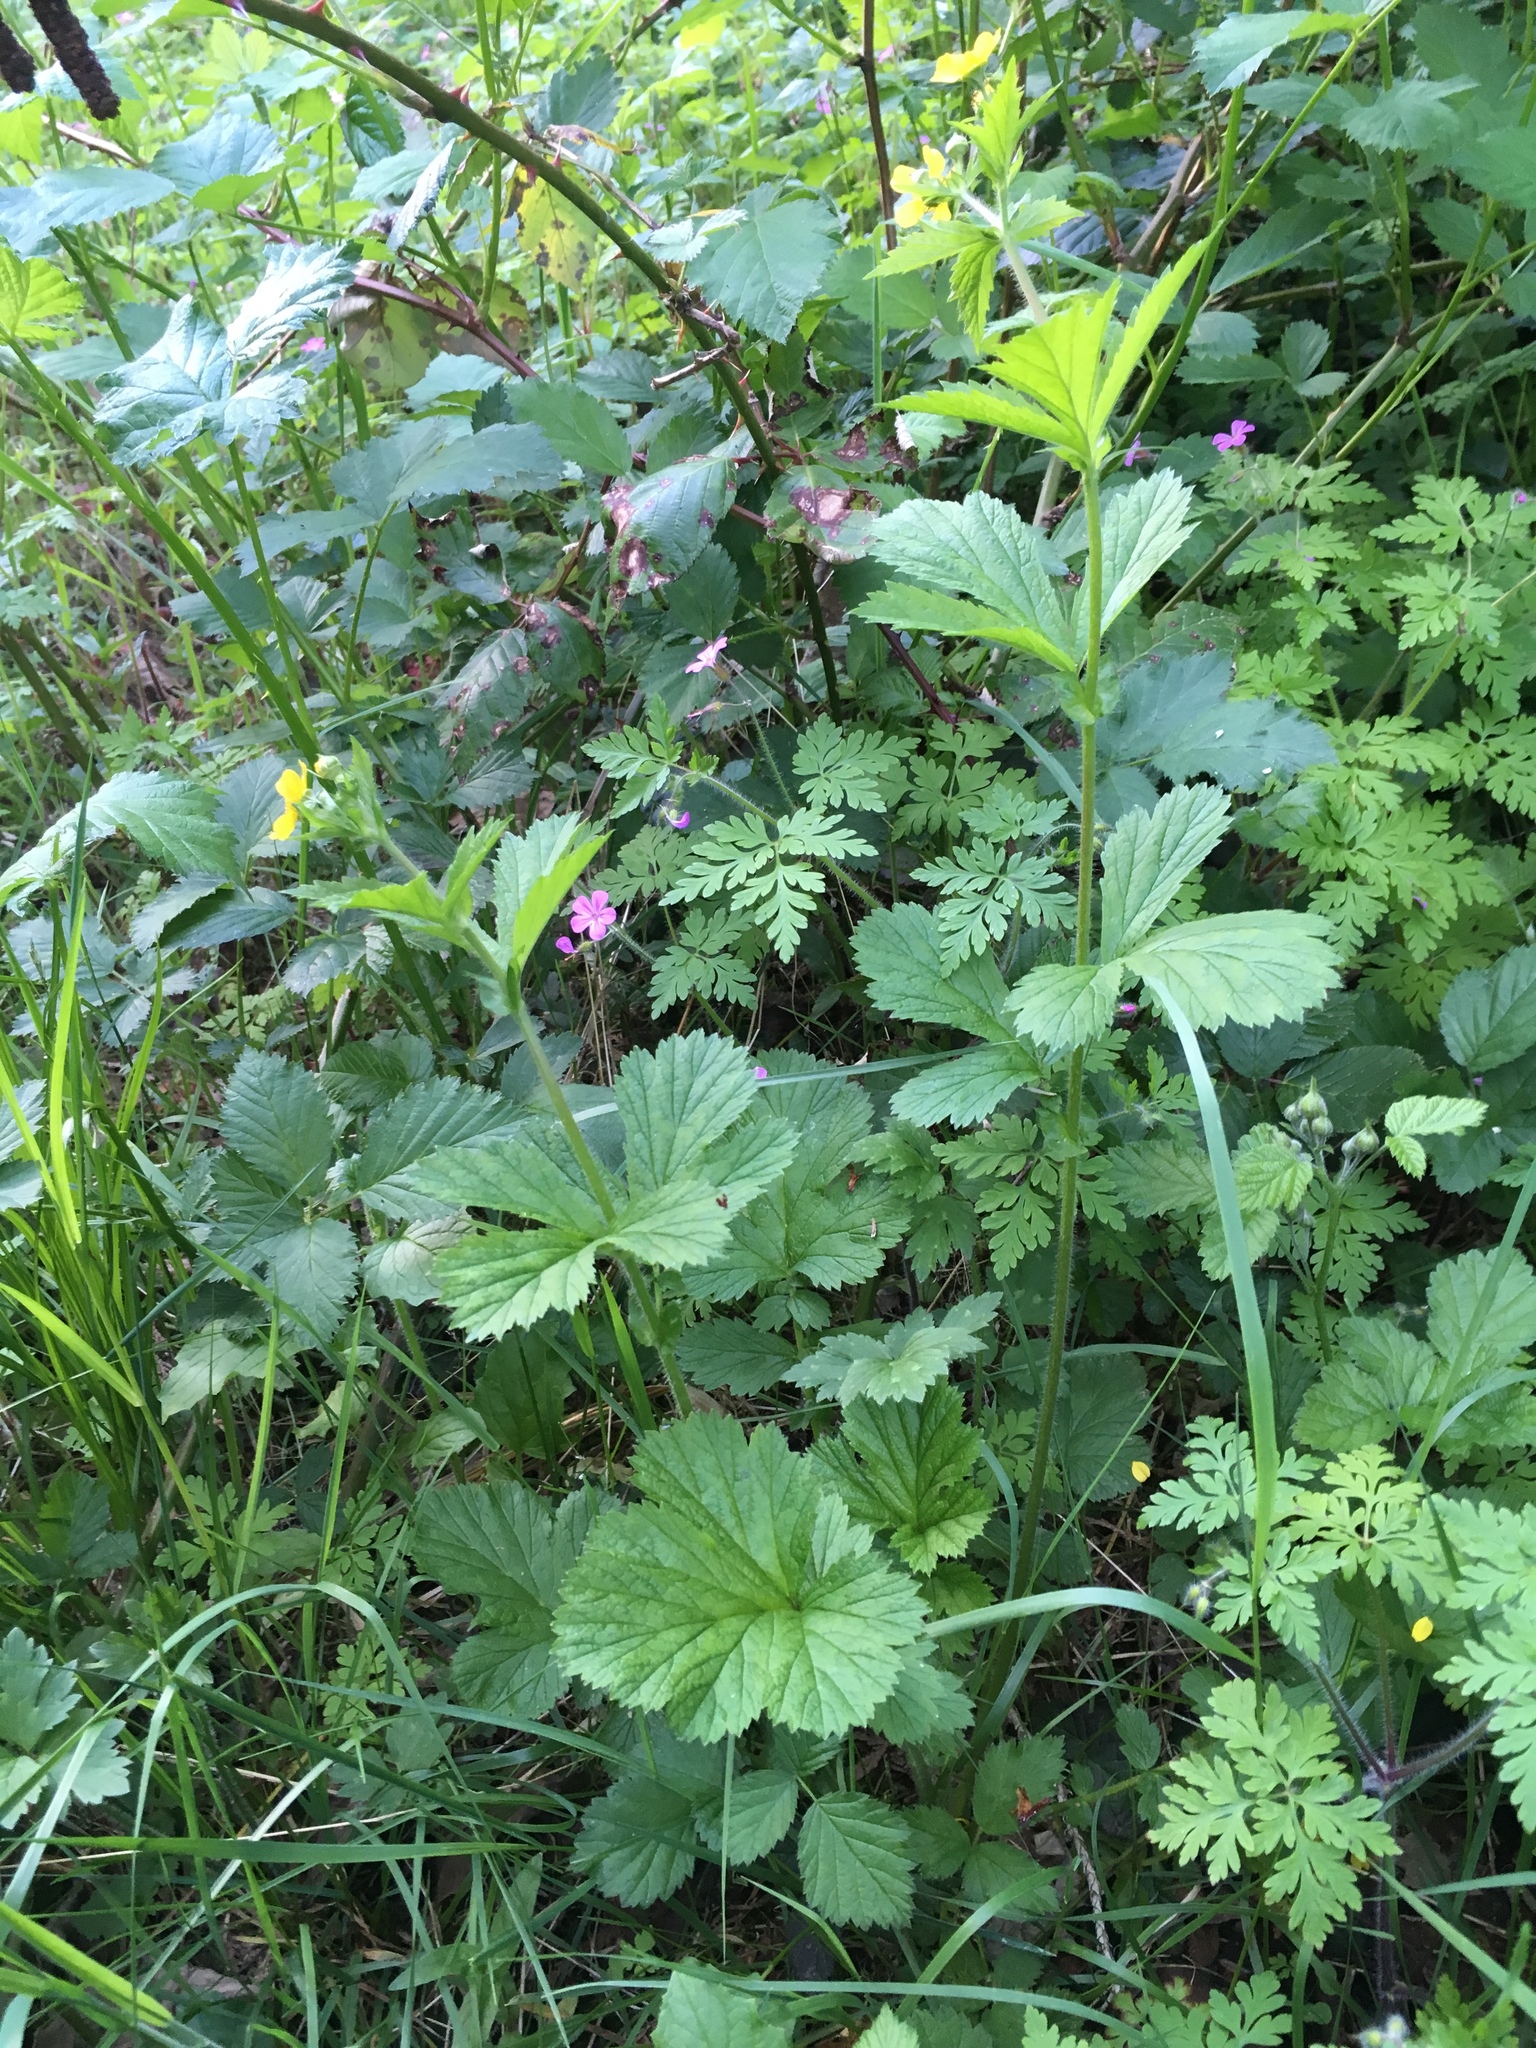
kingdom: Plantae
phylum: Tracheophyta
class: Magnoliopsida
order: Rosales
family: Rosaceae
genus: Geum
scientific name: Geum macrophyllum
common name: Large-leaved avens
